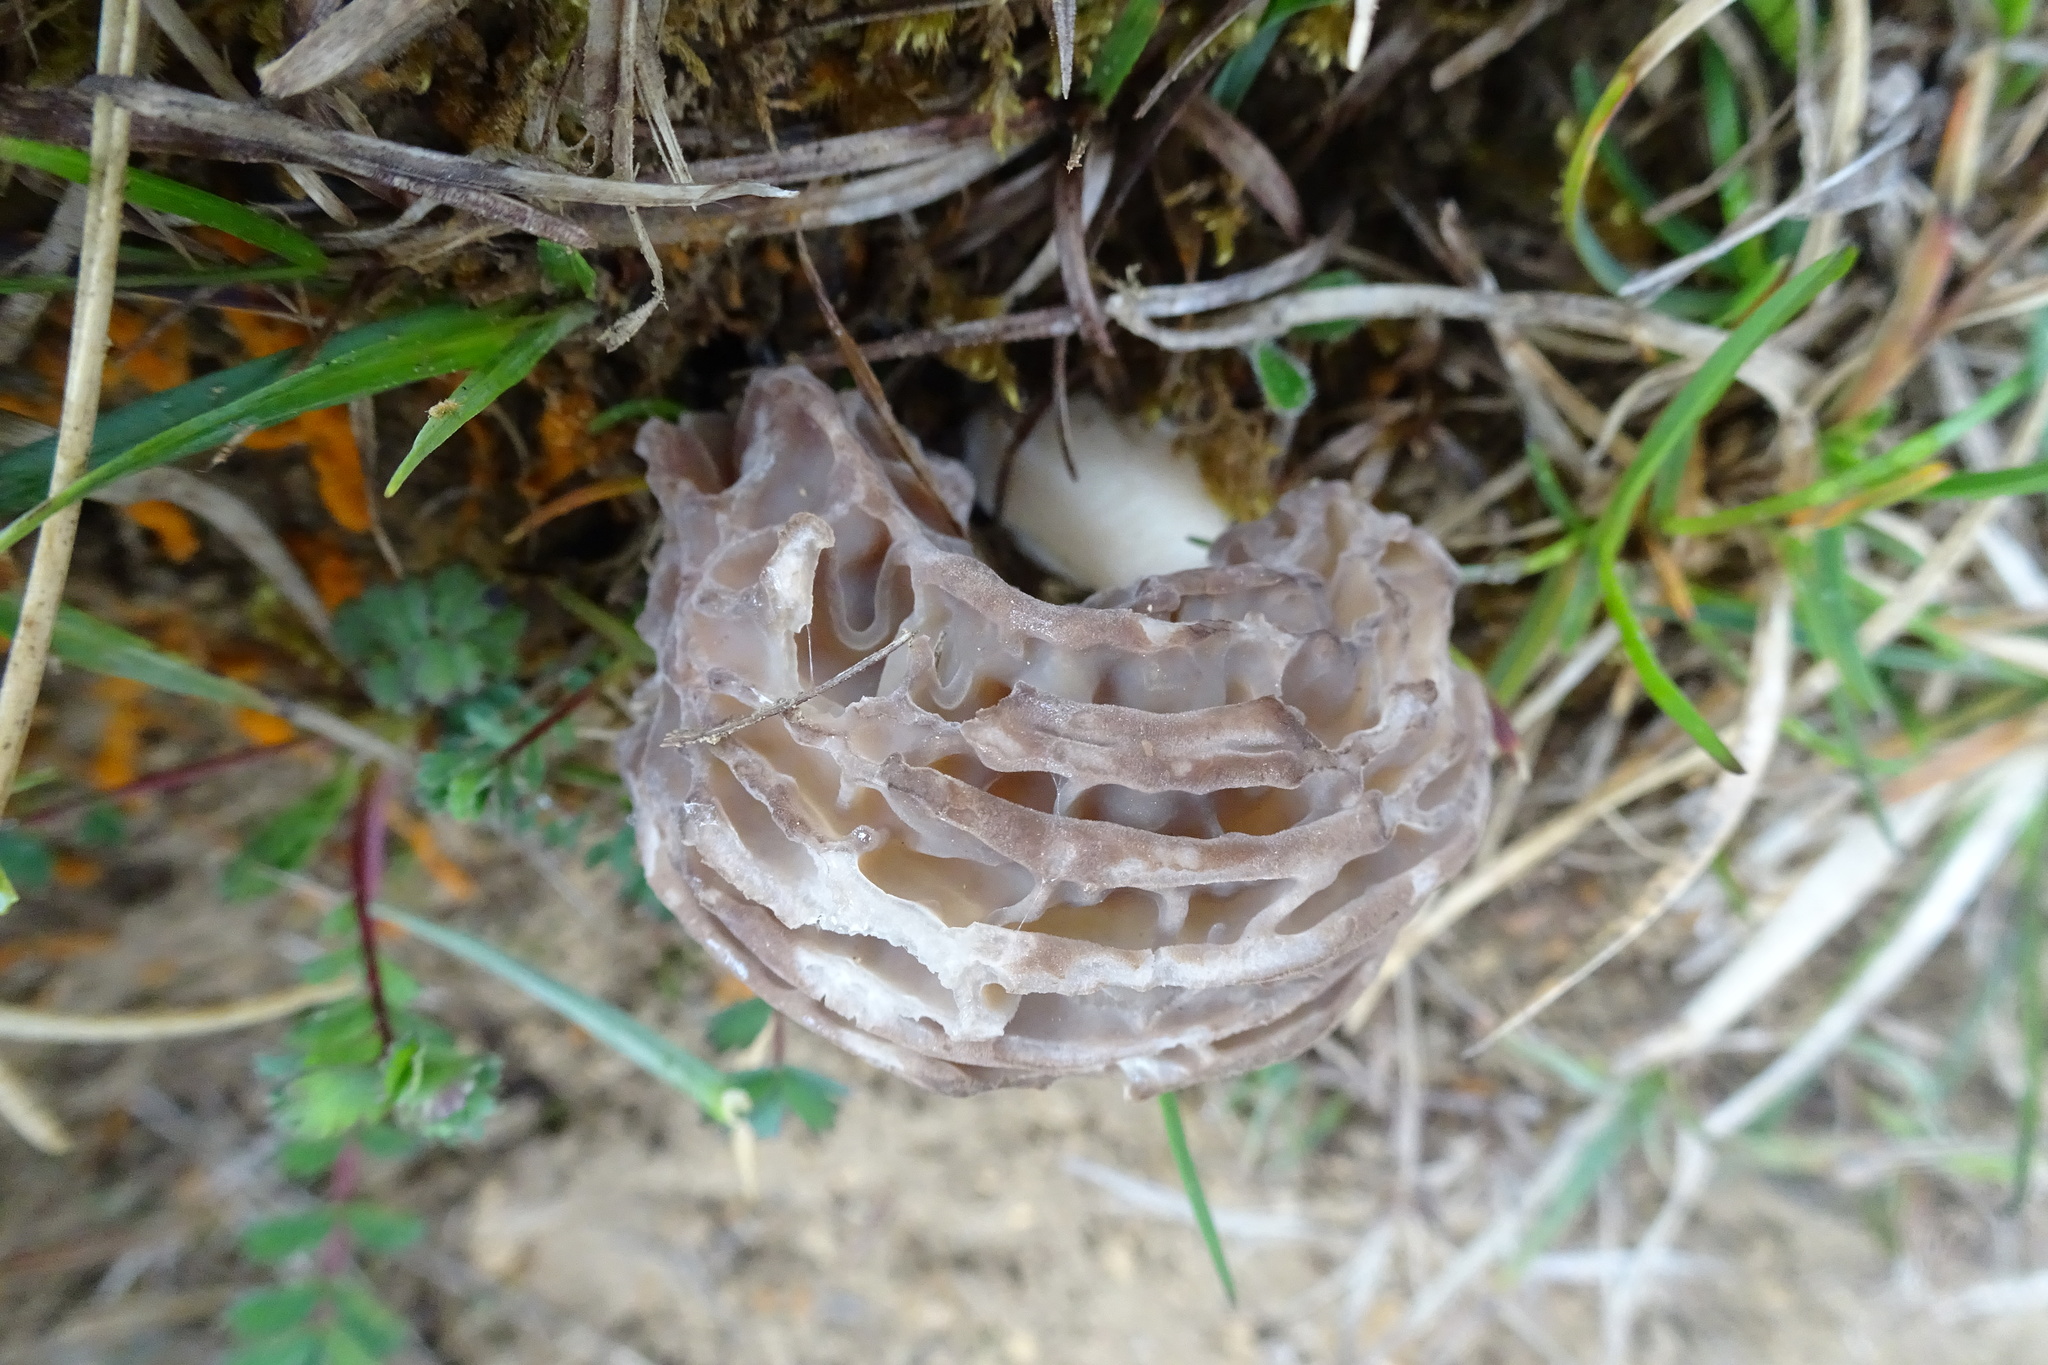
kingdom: Fungi
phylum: Ascomycota
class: Pezizomycetes
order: Pezizales
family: Morchellaceae
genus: Morchella
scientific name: Morchella
